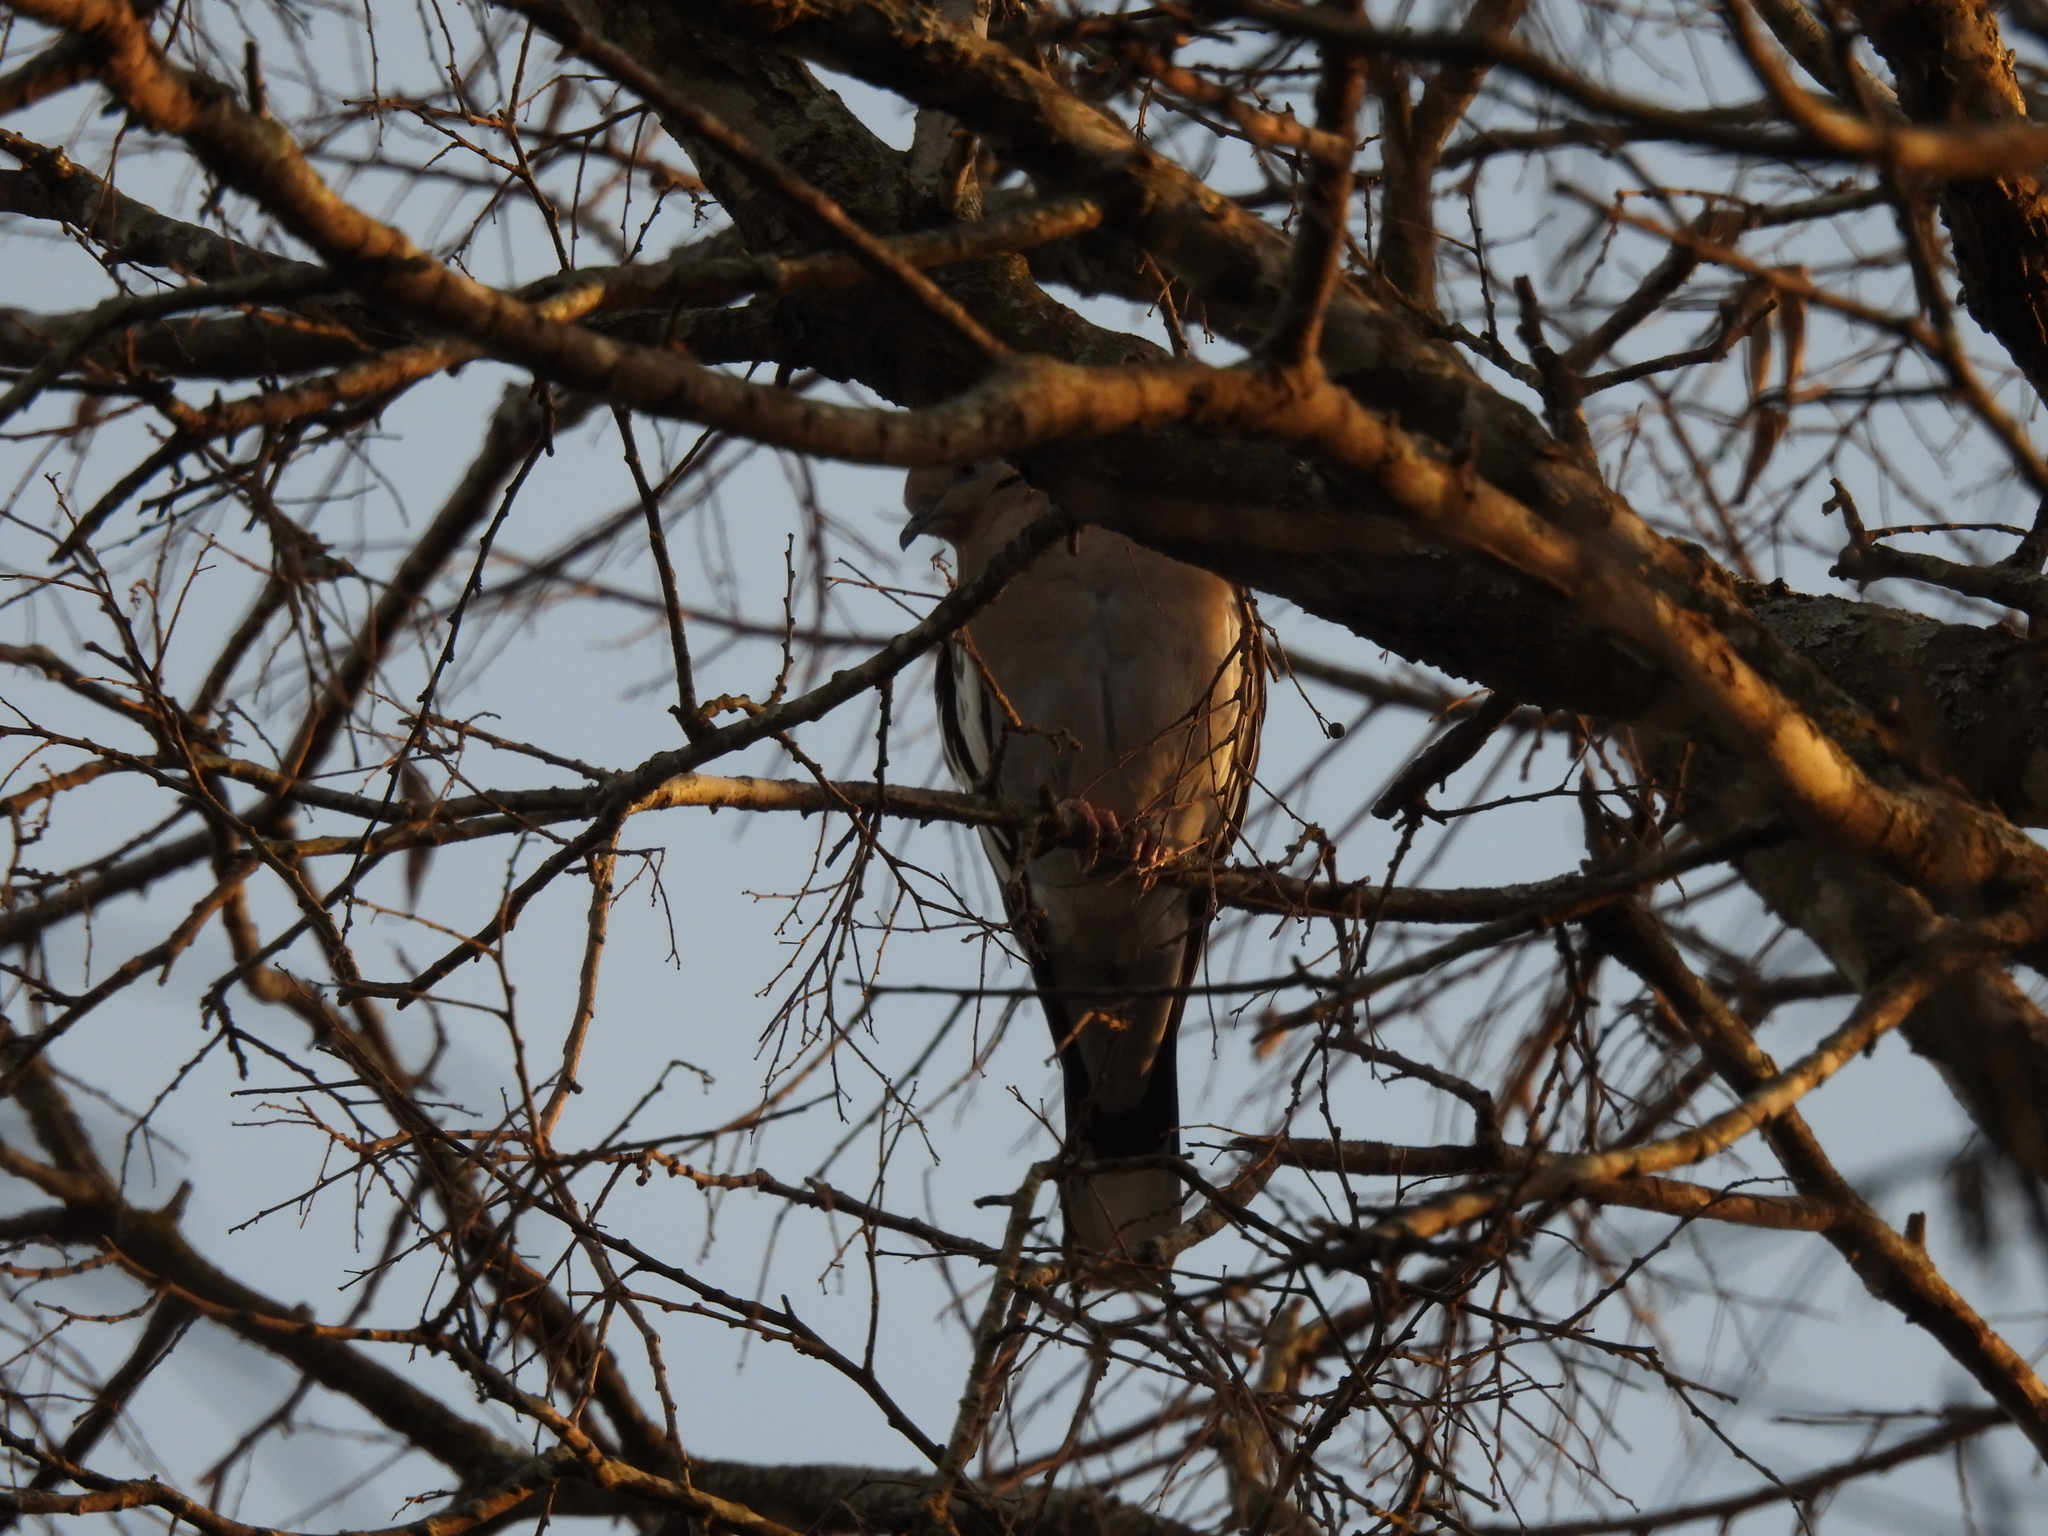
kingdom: Animalia
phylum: Chordata
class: Aves
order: Columbiformes
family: Columbidae
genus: Zenaida
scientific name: Zenaida asiatica
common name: White-winged dove
